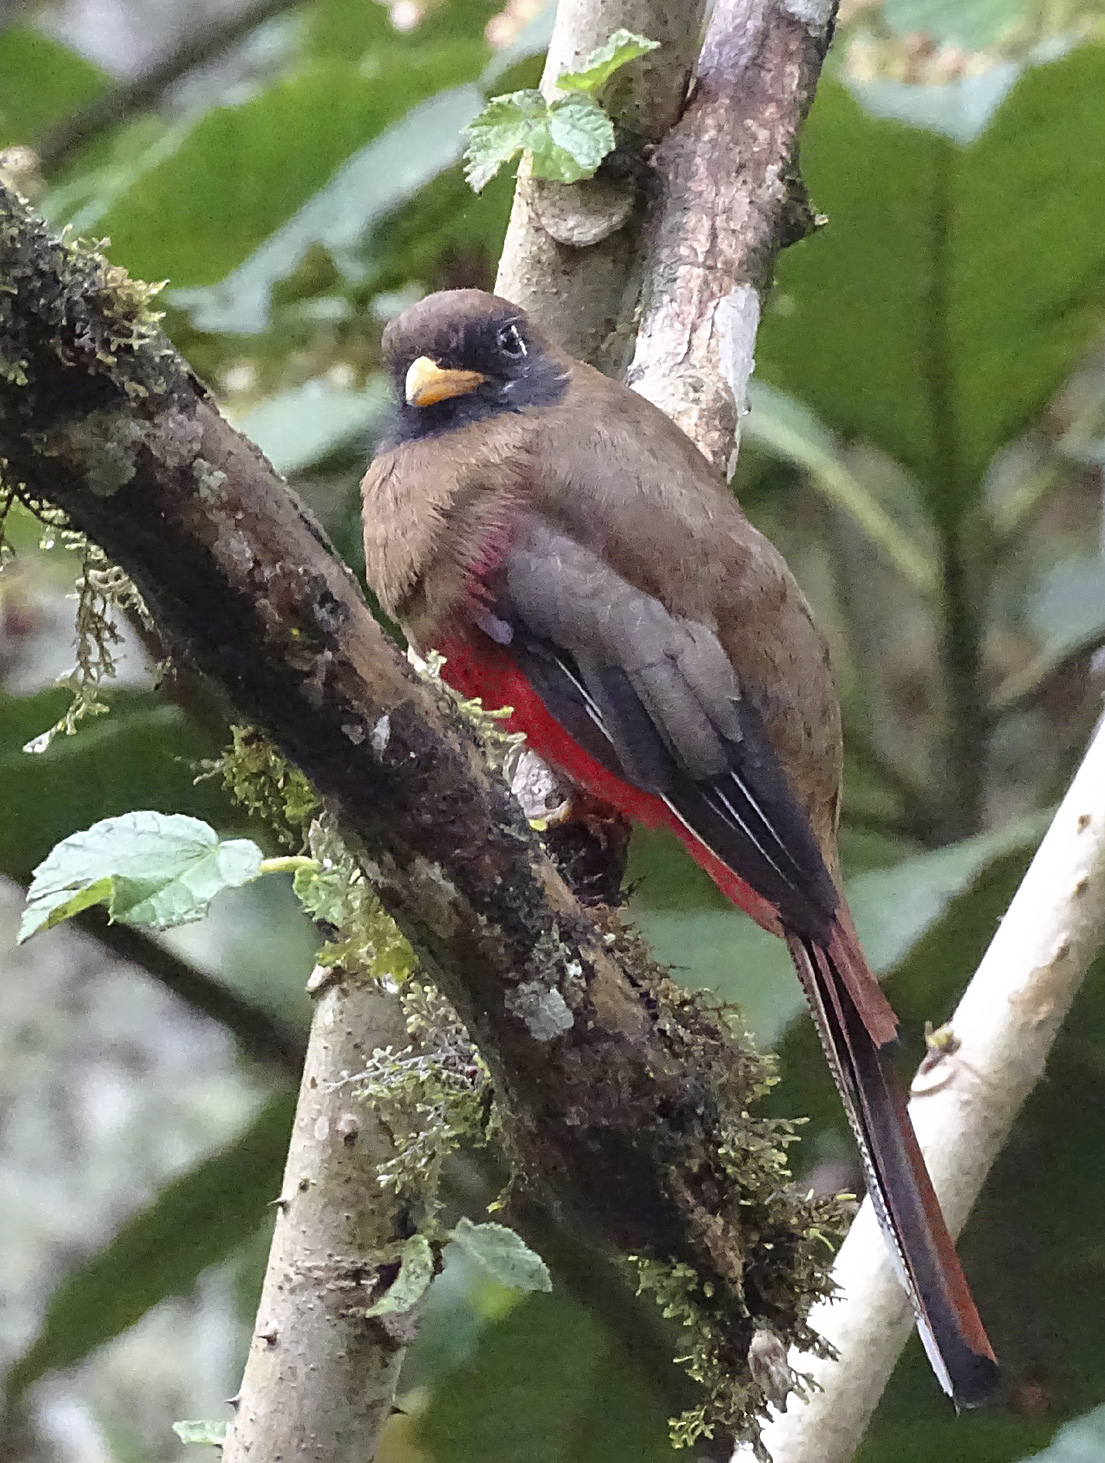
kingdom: Animalia
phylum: Chordata
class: Aves
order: Trogoniformes
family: Trogonidae
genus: Trogon
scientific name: Trogon personatus
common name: Masked trogon
